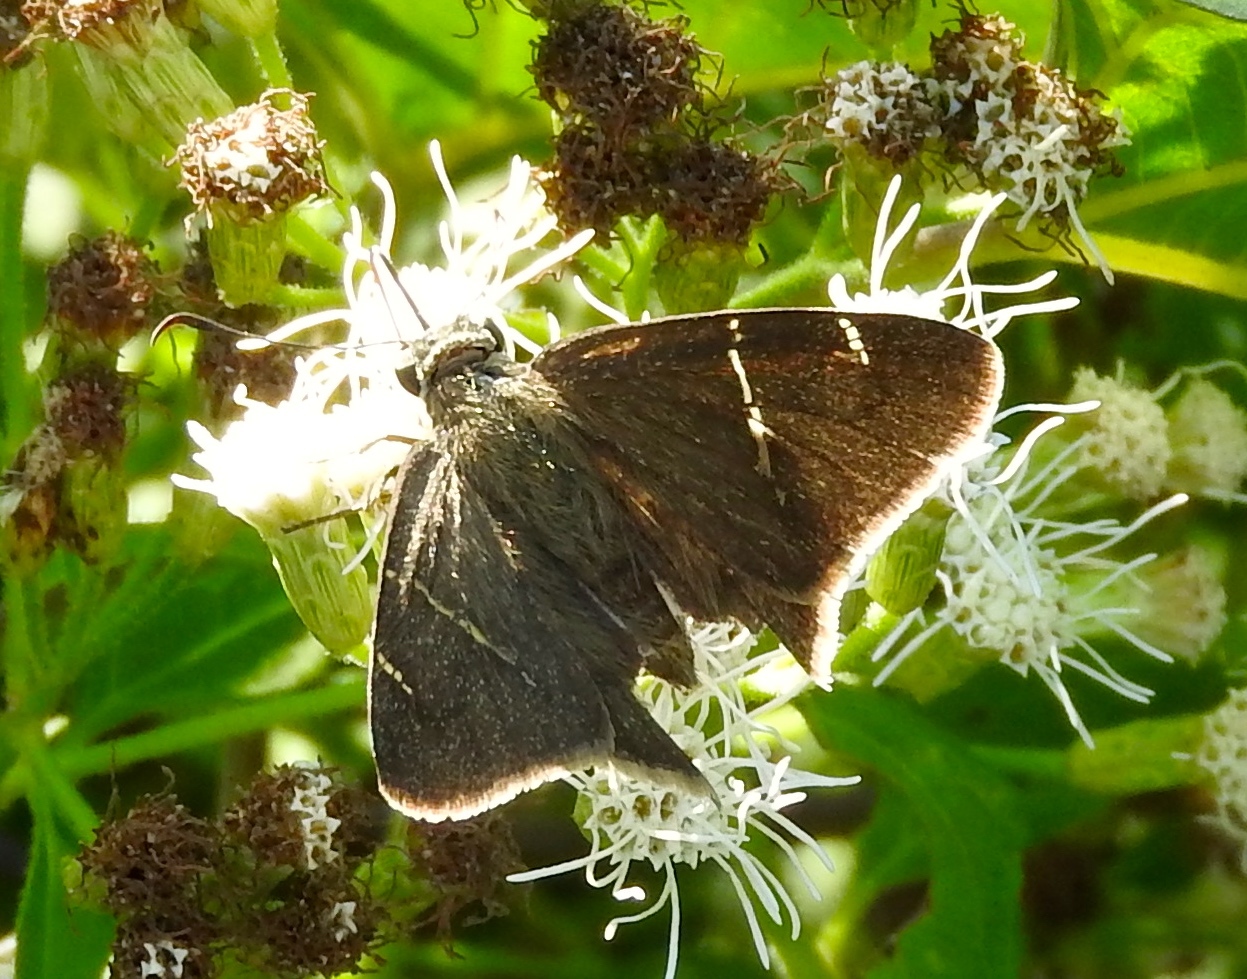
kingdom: Animalia
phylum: Arthropoda
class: Insecta
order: Lepidoptera
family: Hesperiidae
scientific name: Hesperiidae
